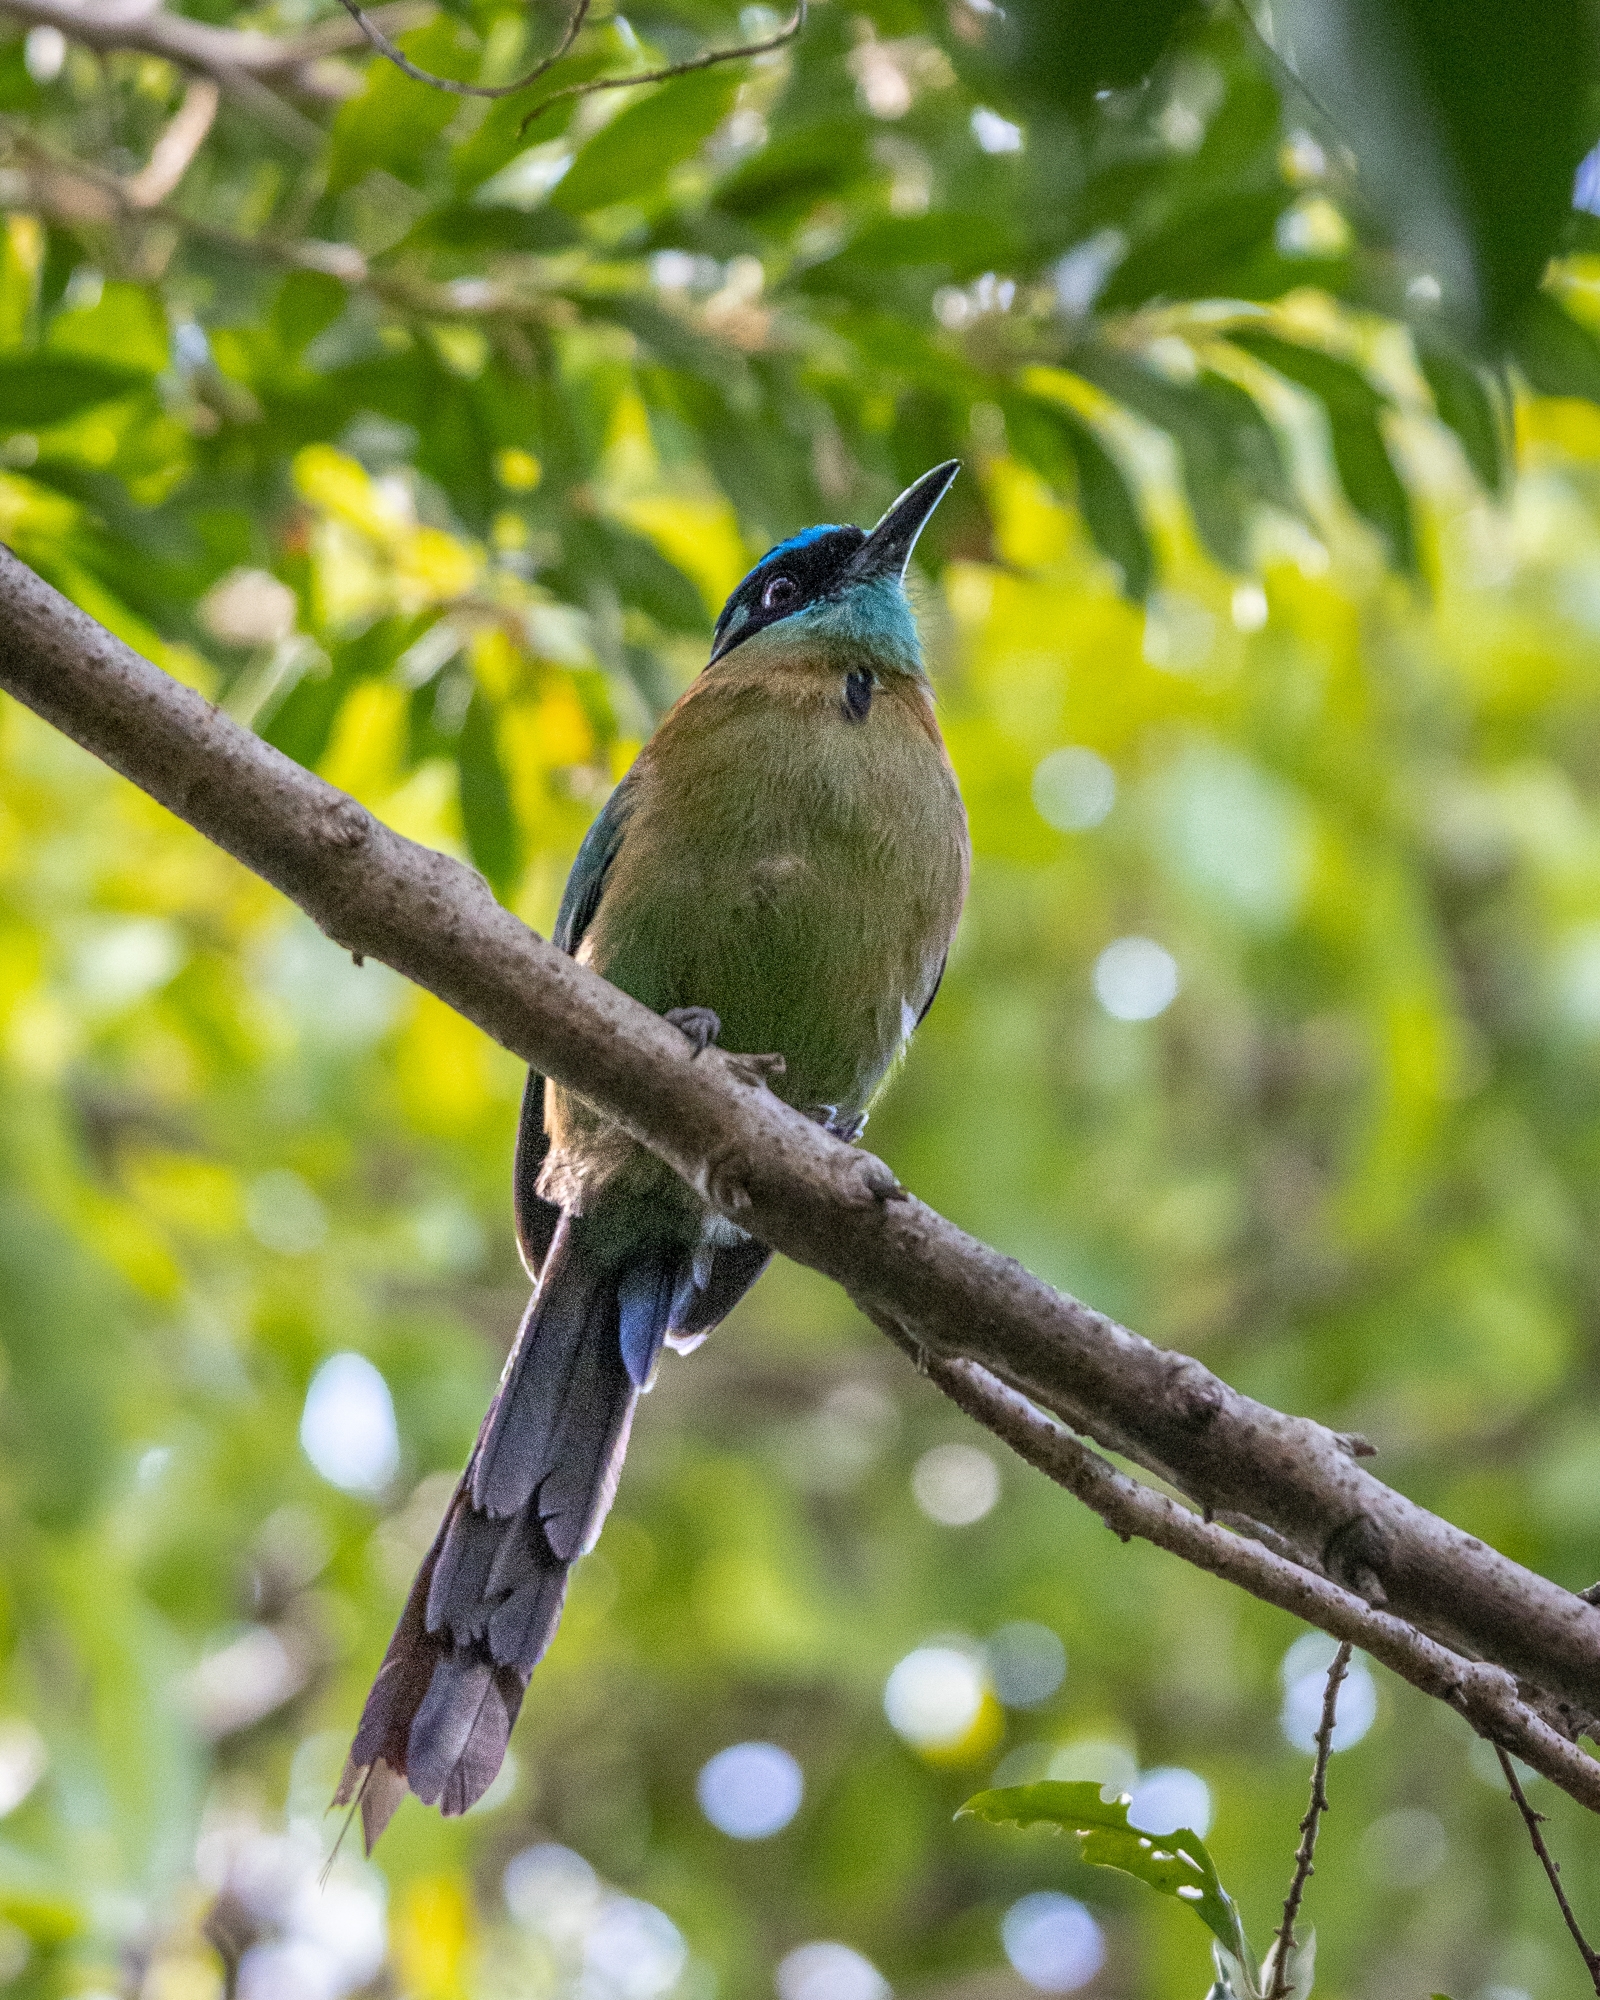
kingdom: Animalia
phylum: Chordata
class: Aves
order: Coraciiformes
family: Momotidae
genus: Momotus
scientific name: Momotus lessonii
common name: Lesson's motmot
